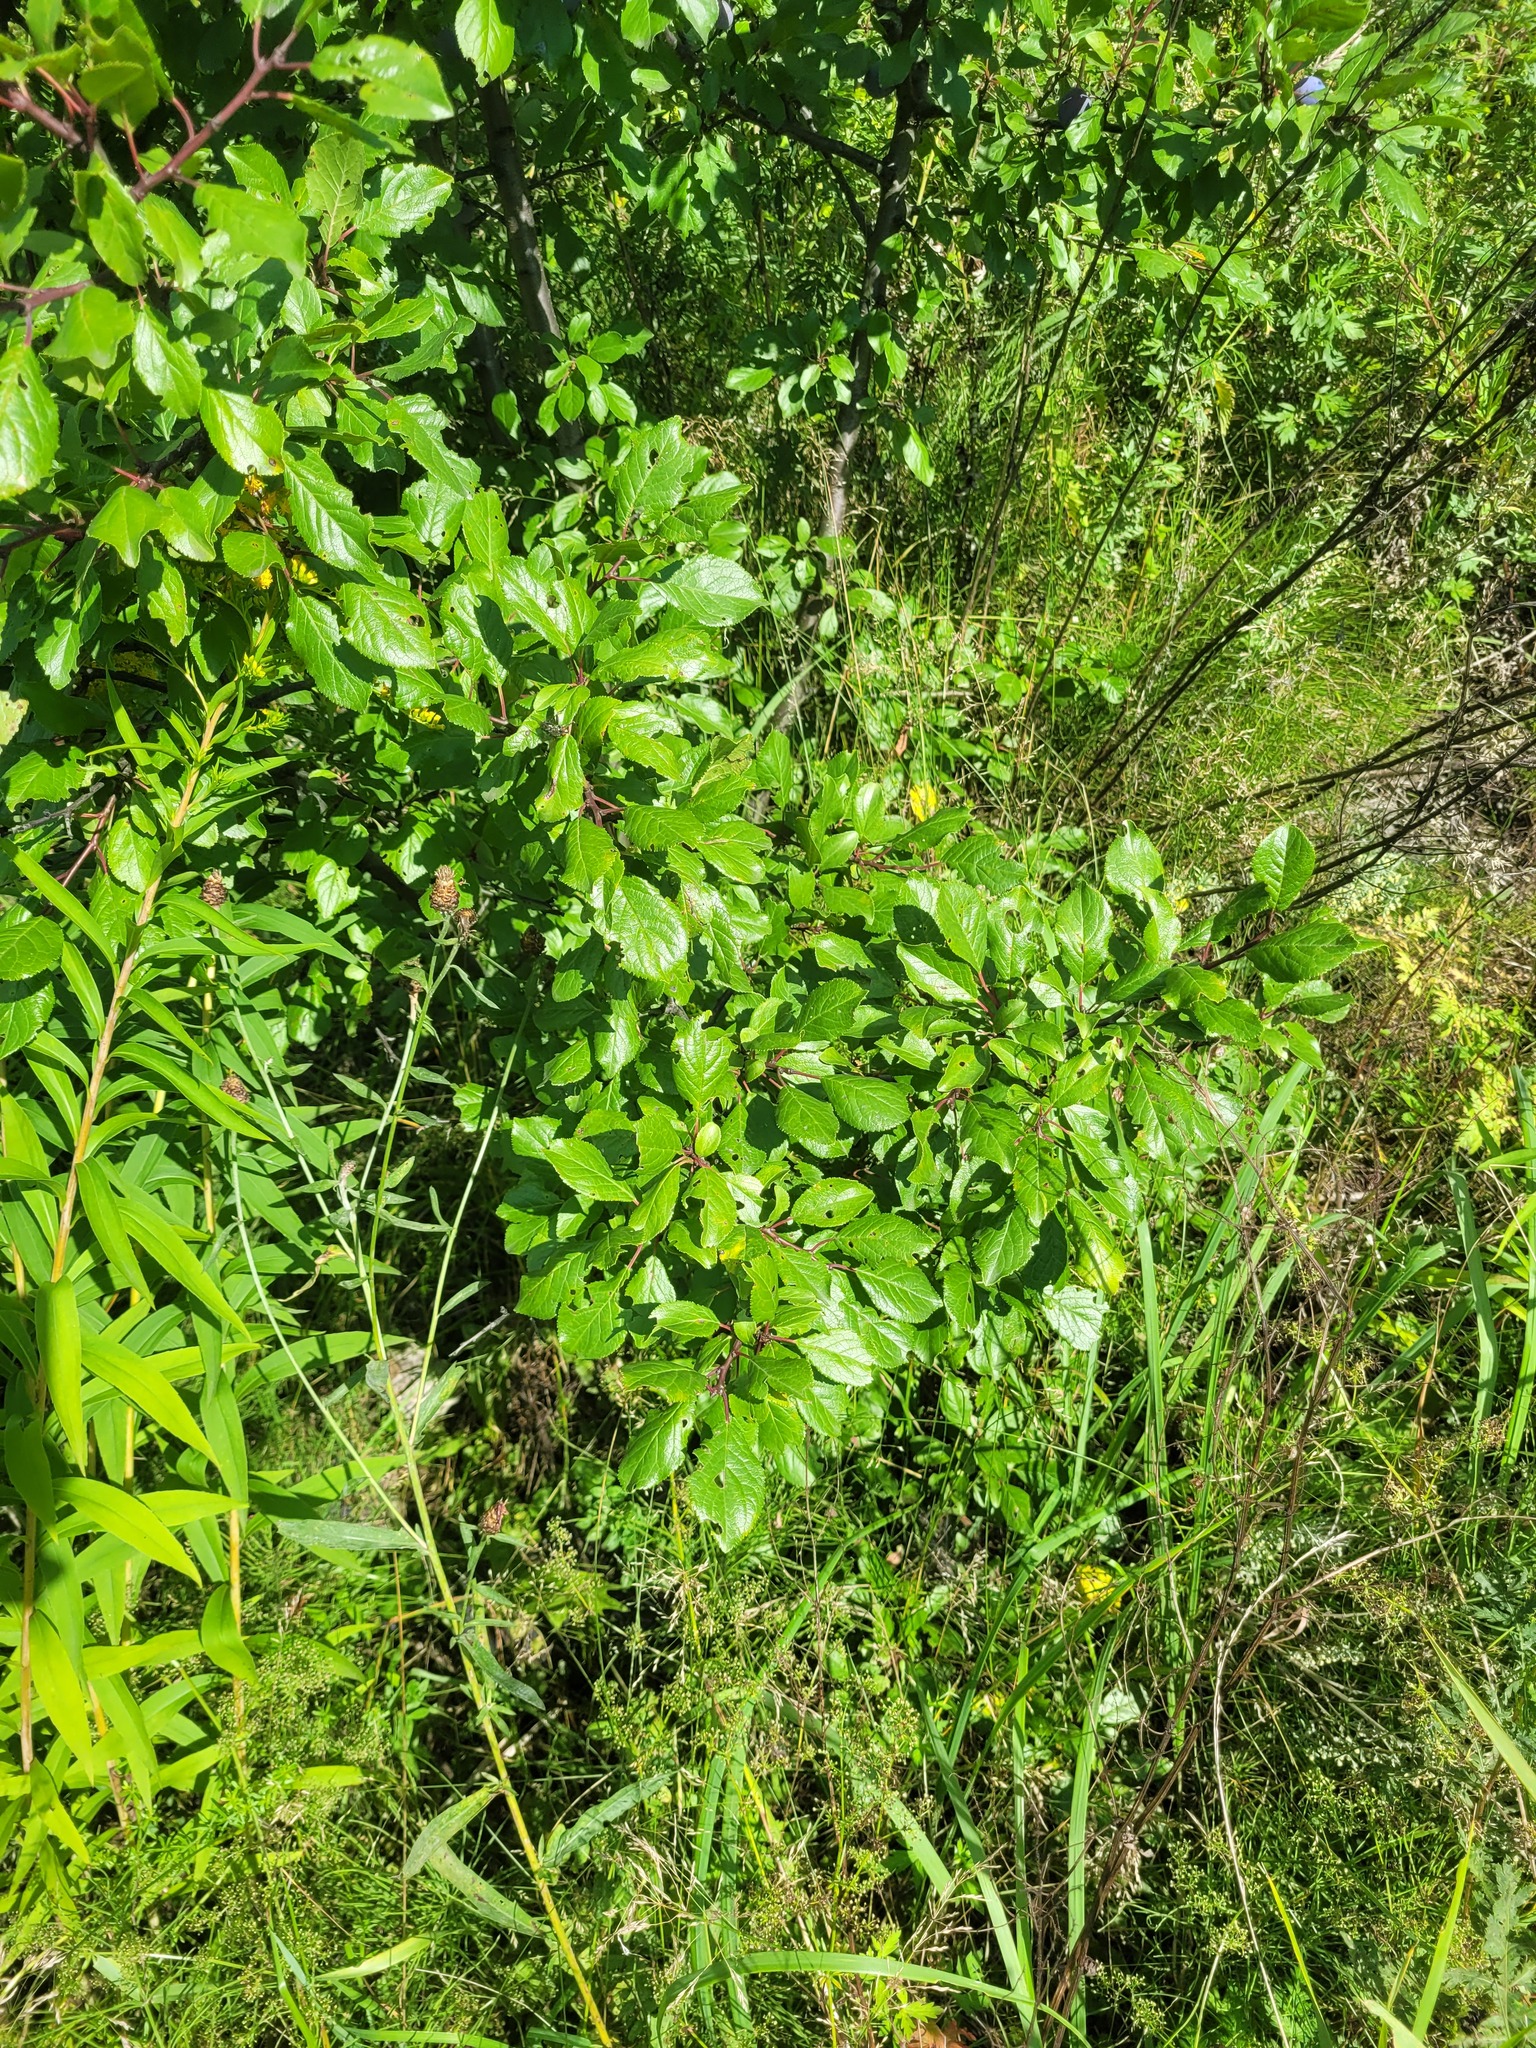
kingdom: Plantae
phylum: Tracheophyta
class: Magnoliopsida
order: Rosales
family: Rosaceae
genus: Prunus
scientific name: Prunus domestica
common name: Wild plum
